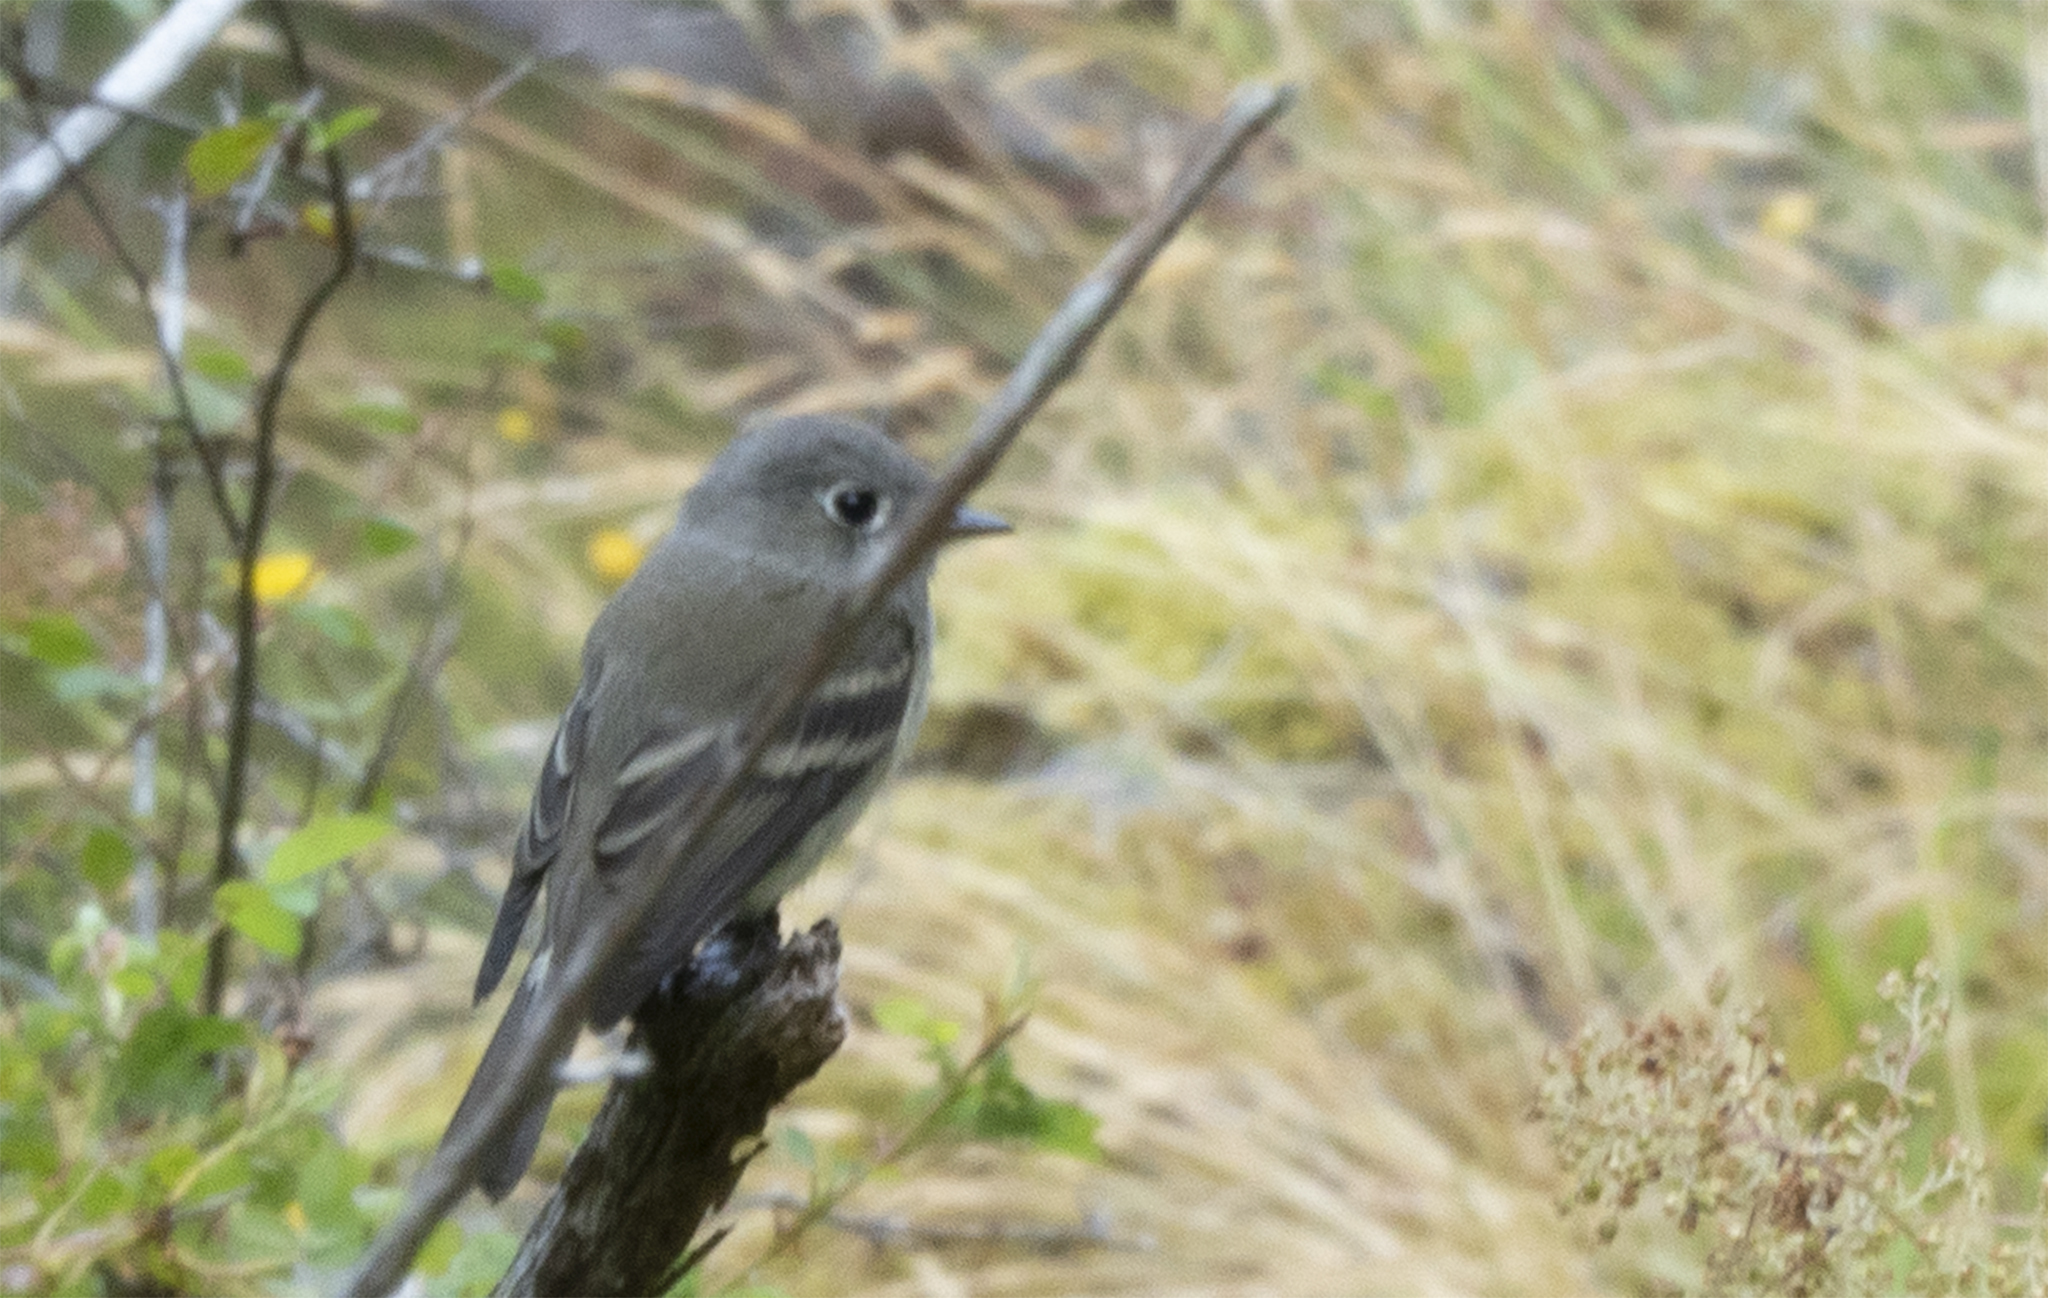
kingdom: Animalia
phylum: Chordata
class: Aves
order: Passeriformes
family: Tyrannidae
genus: Empidonax
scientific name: Empidonax hammondii
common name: Hammond's flycatcher
